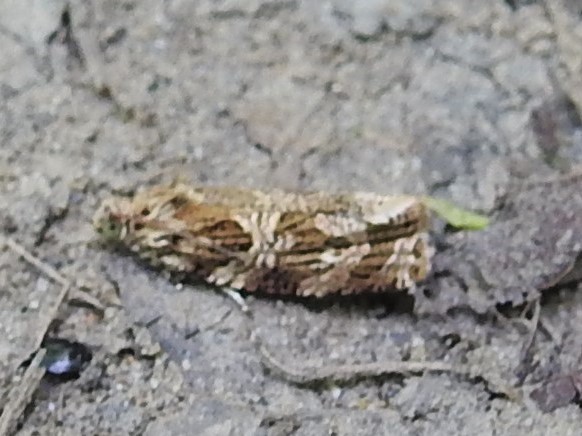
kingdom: Animalia
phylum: Arthropoda
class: Insecta
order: Lepidoptera
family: Tortricidae
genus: Phaecasiophora
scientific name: Phaecasiophora confixana
